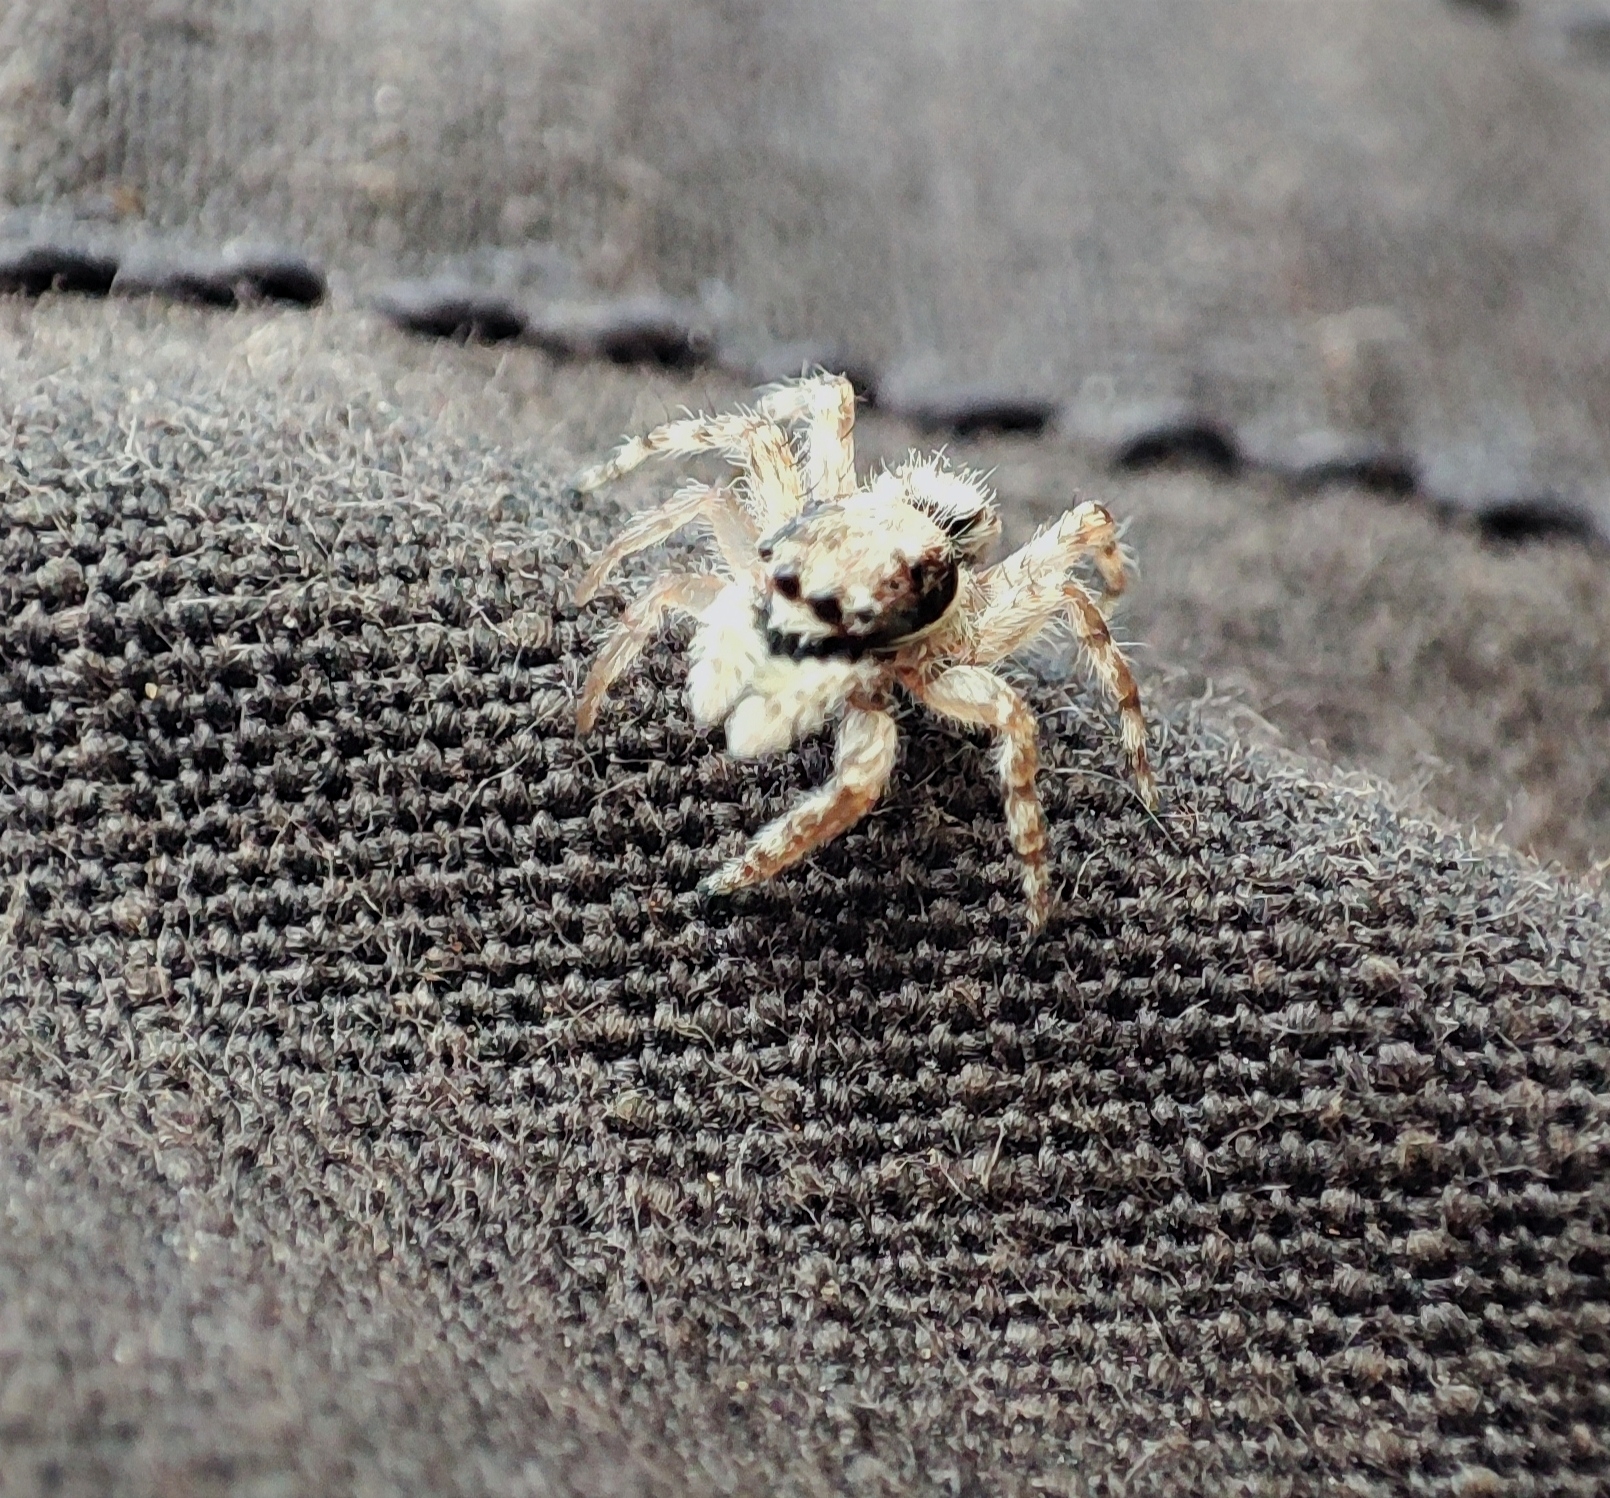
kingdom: Animalia
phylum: Arthropoda
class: Arachnida
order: Araneae
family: Salticidae
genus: Menemerus
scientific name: Menemerus bivittatus
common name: Gray wall jumper
